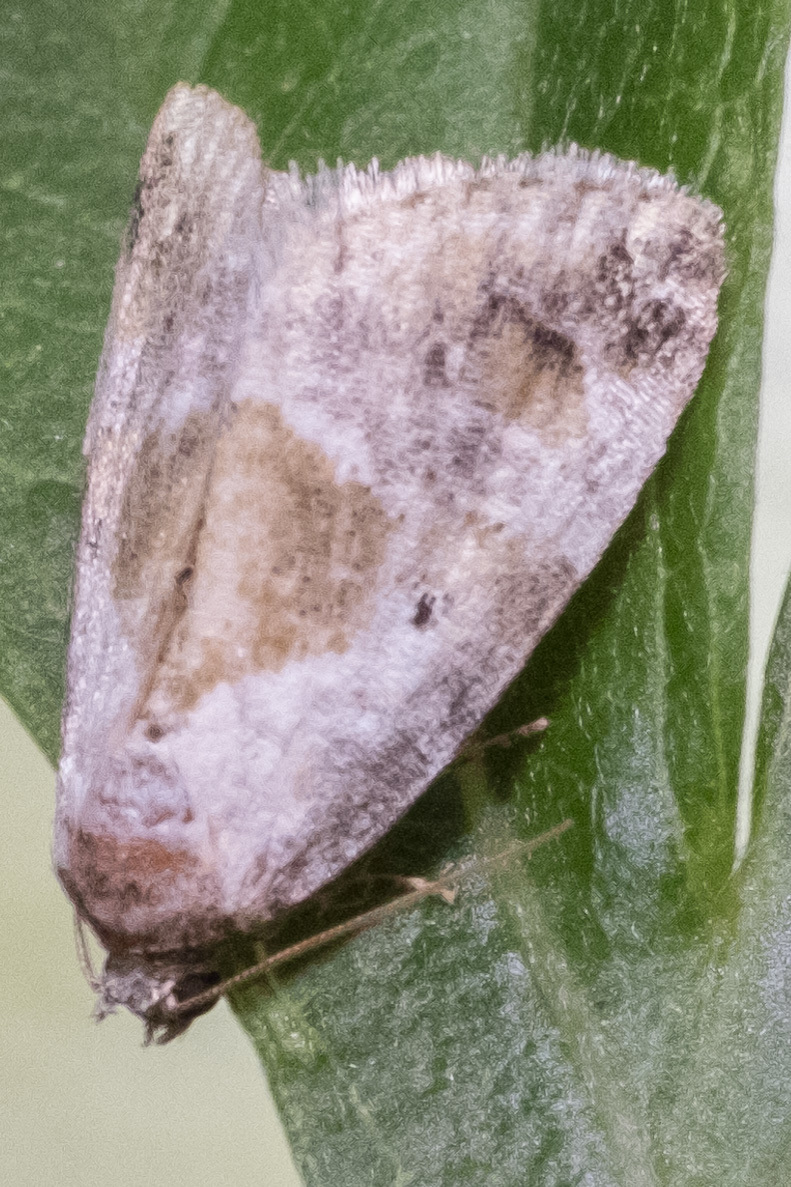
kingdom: Animalia
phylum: Arthropoda
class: Insecta
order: Lepidoptera
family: Noctuidae
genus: Maliattha
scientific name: Maliattha synochitis
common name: Black-dotted glyph
